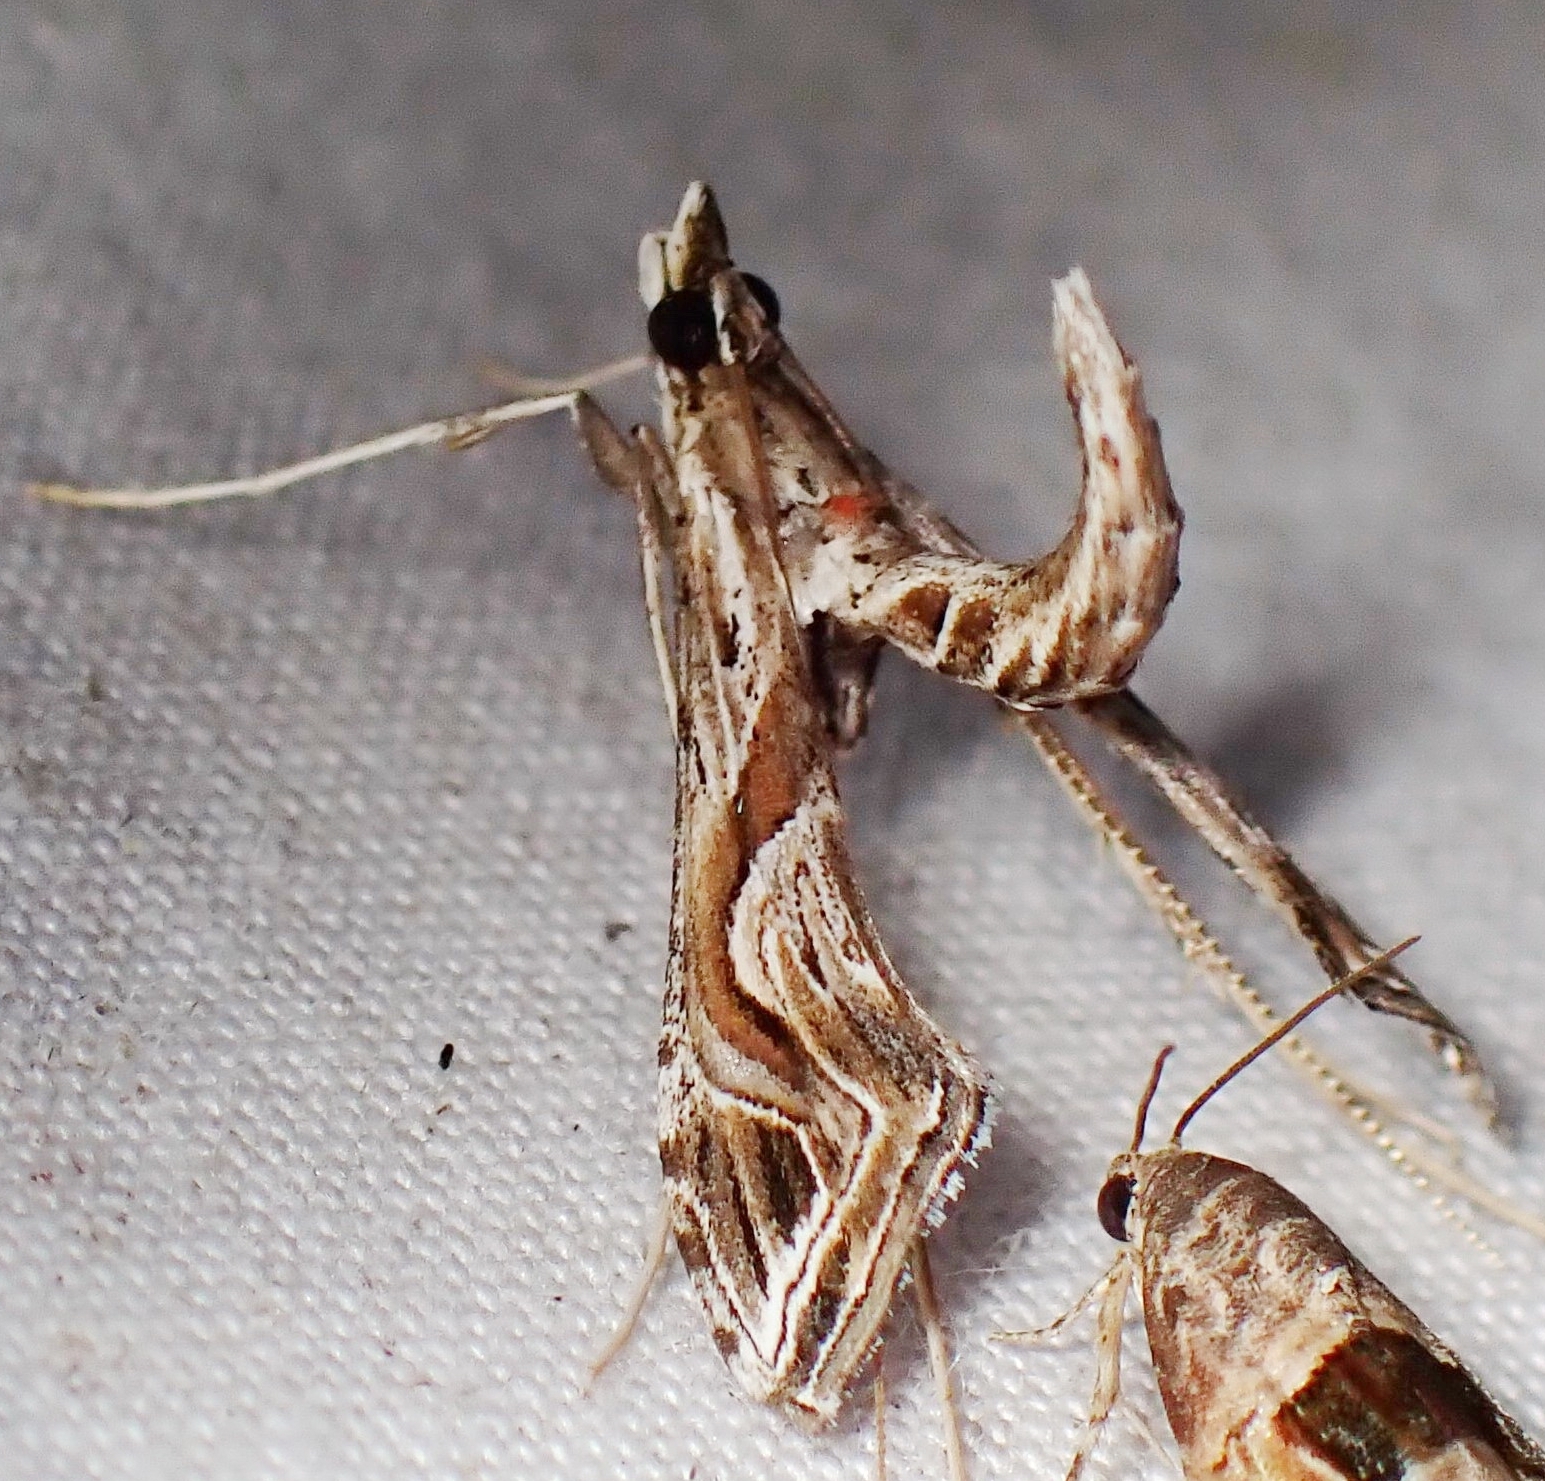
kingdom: Animalia
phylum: Arthropoda
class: Insecta
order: Lepidoptera
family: Crambidae
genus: Lineodes
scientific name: Lineodes integra
